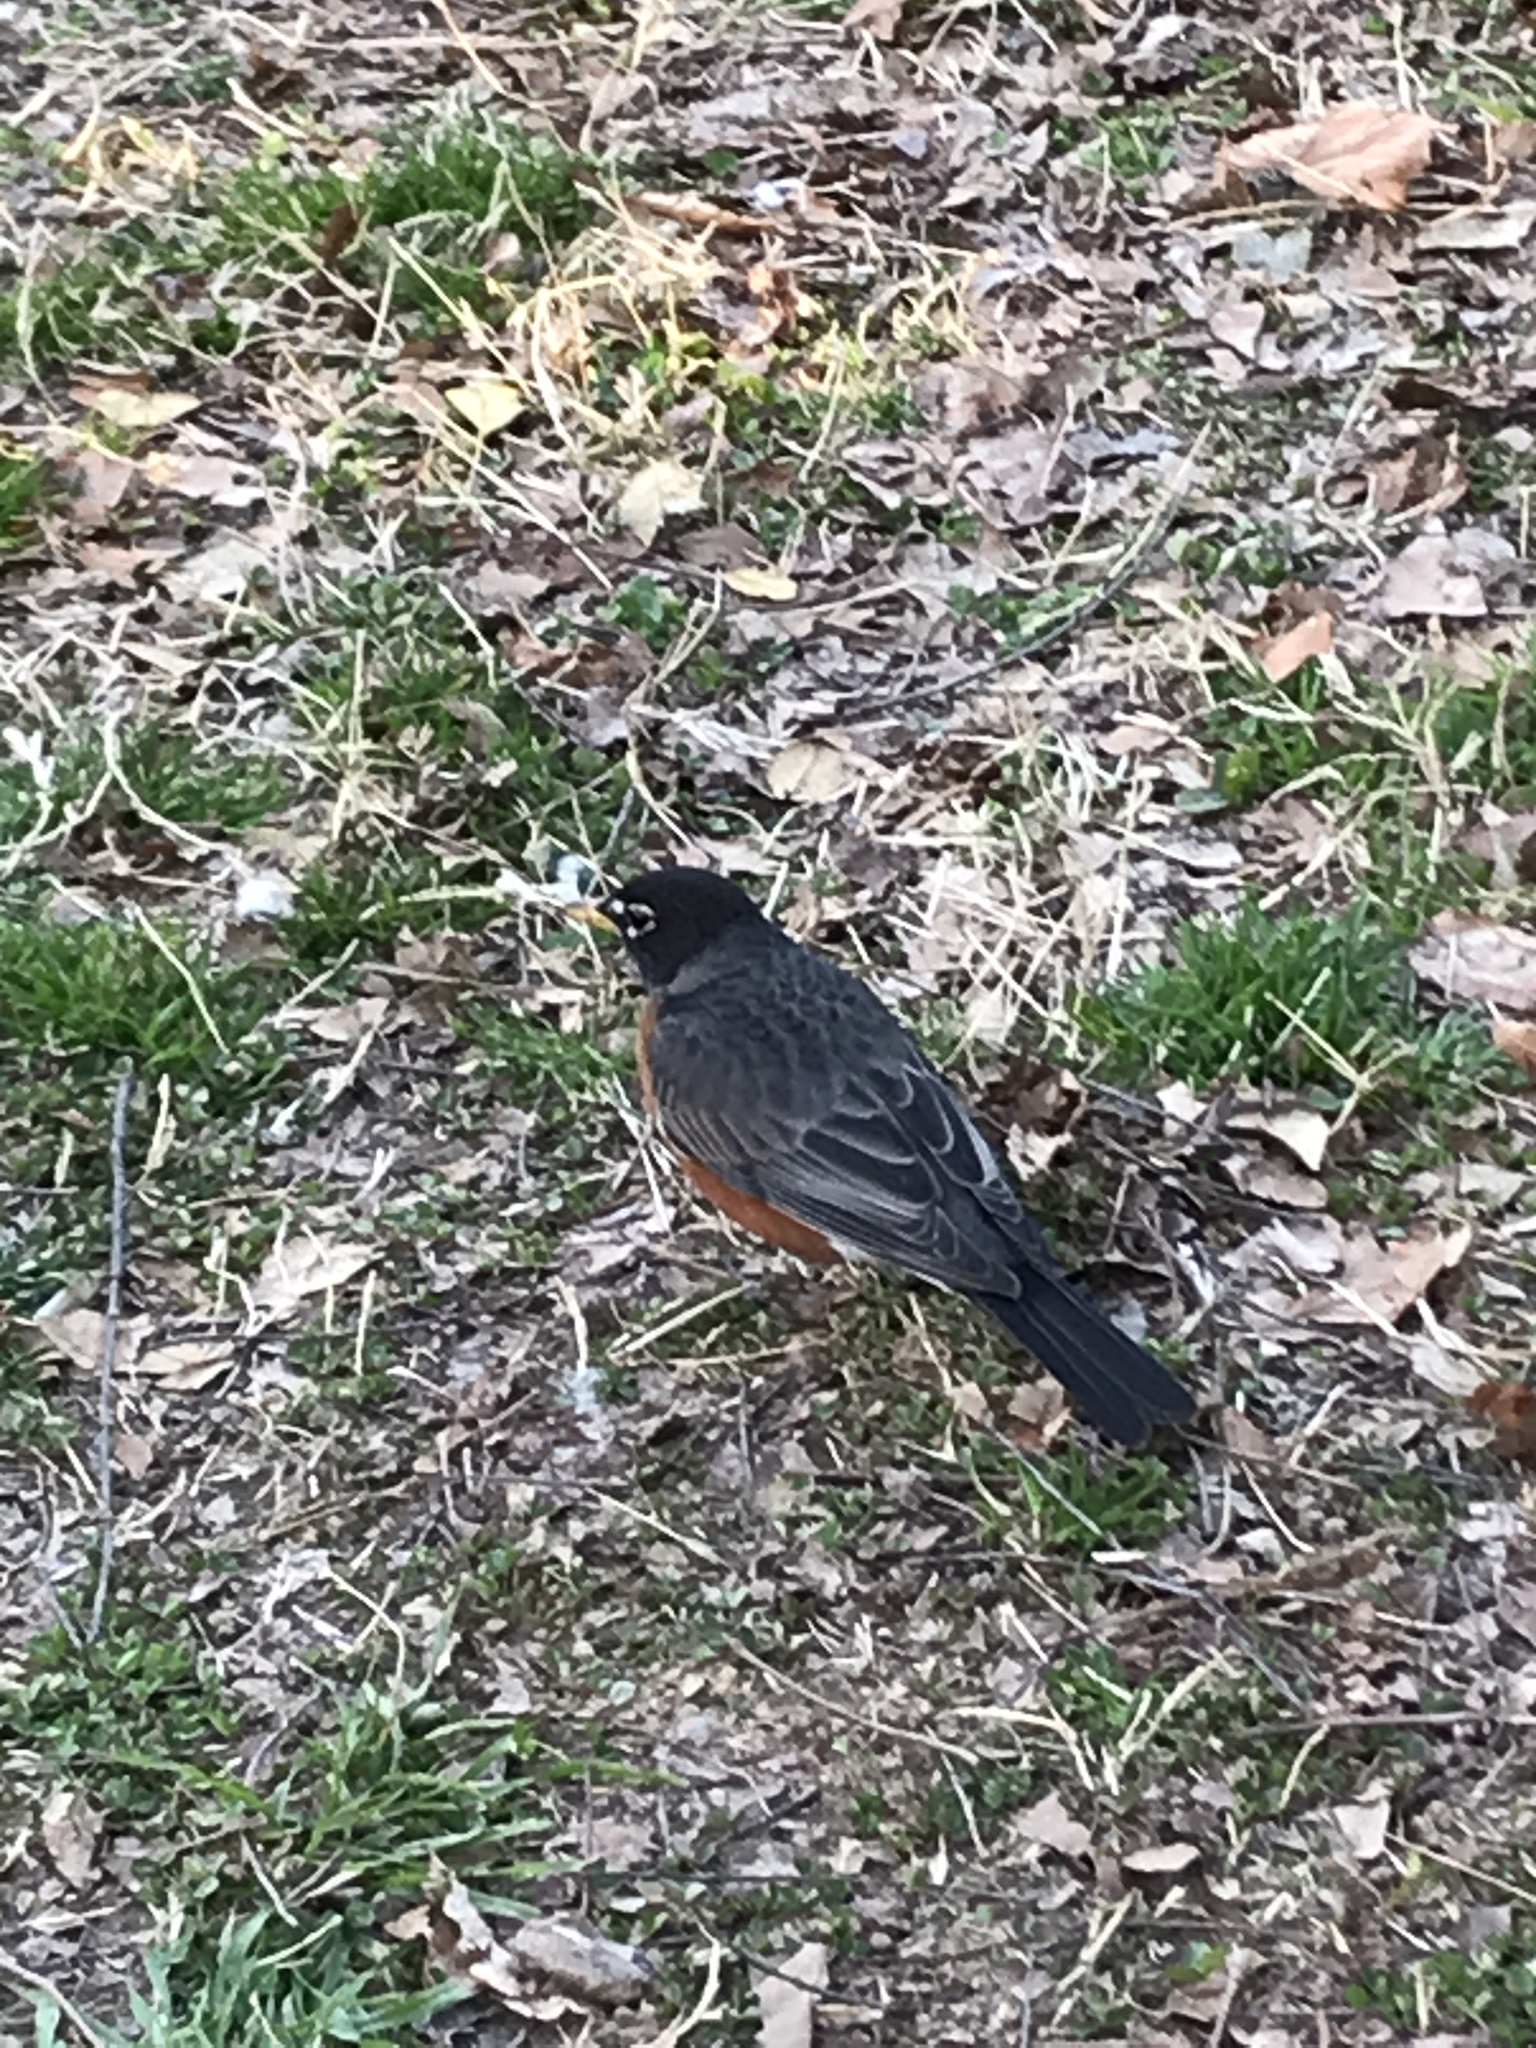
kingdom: Animalia
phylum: Chordata
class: Aves
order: Passeriformes
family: Turdidae
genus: Turdus
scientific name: Turdus migratorius
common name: American robin
